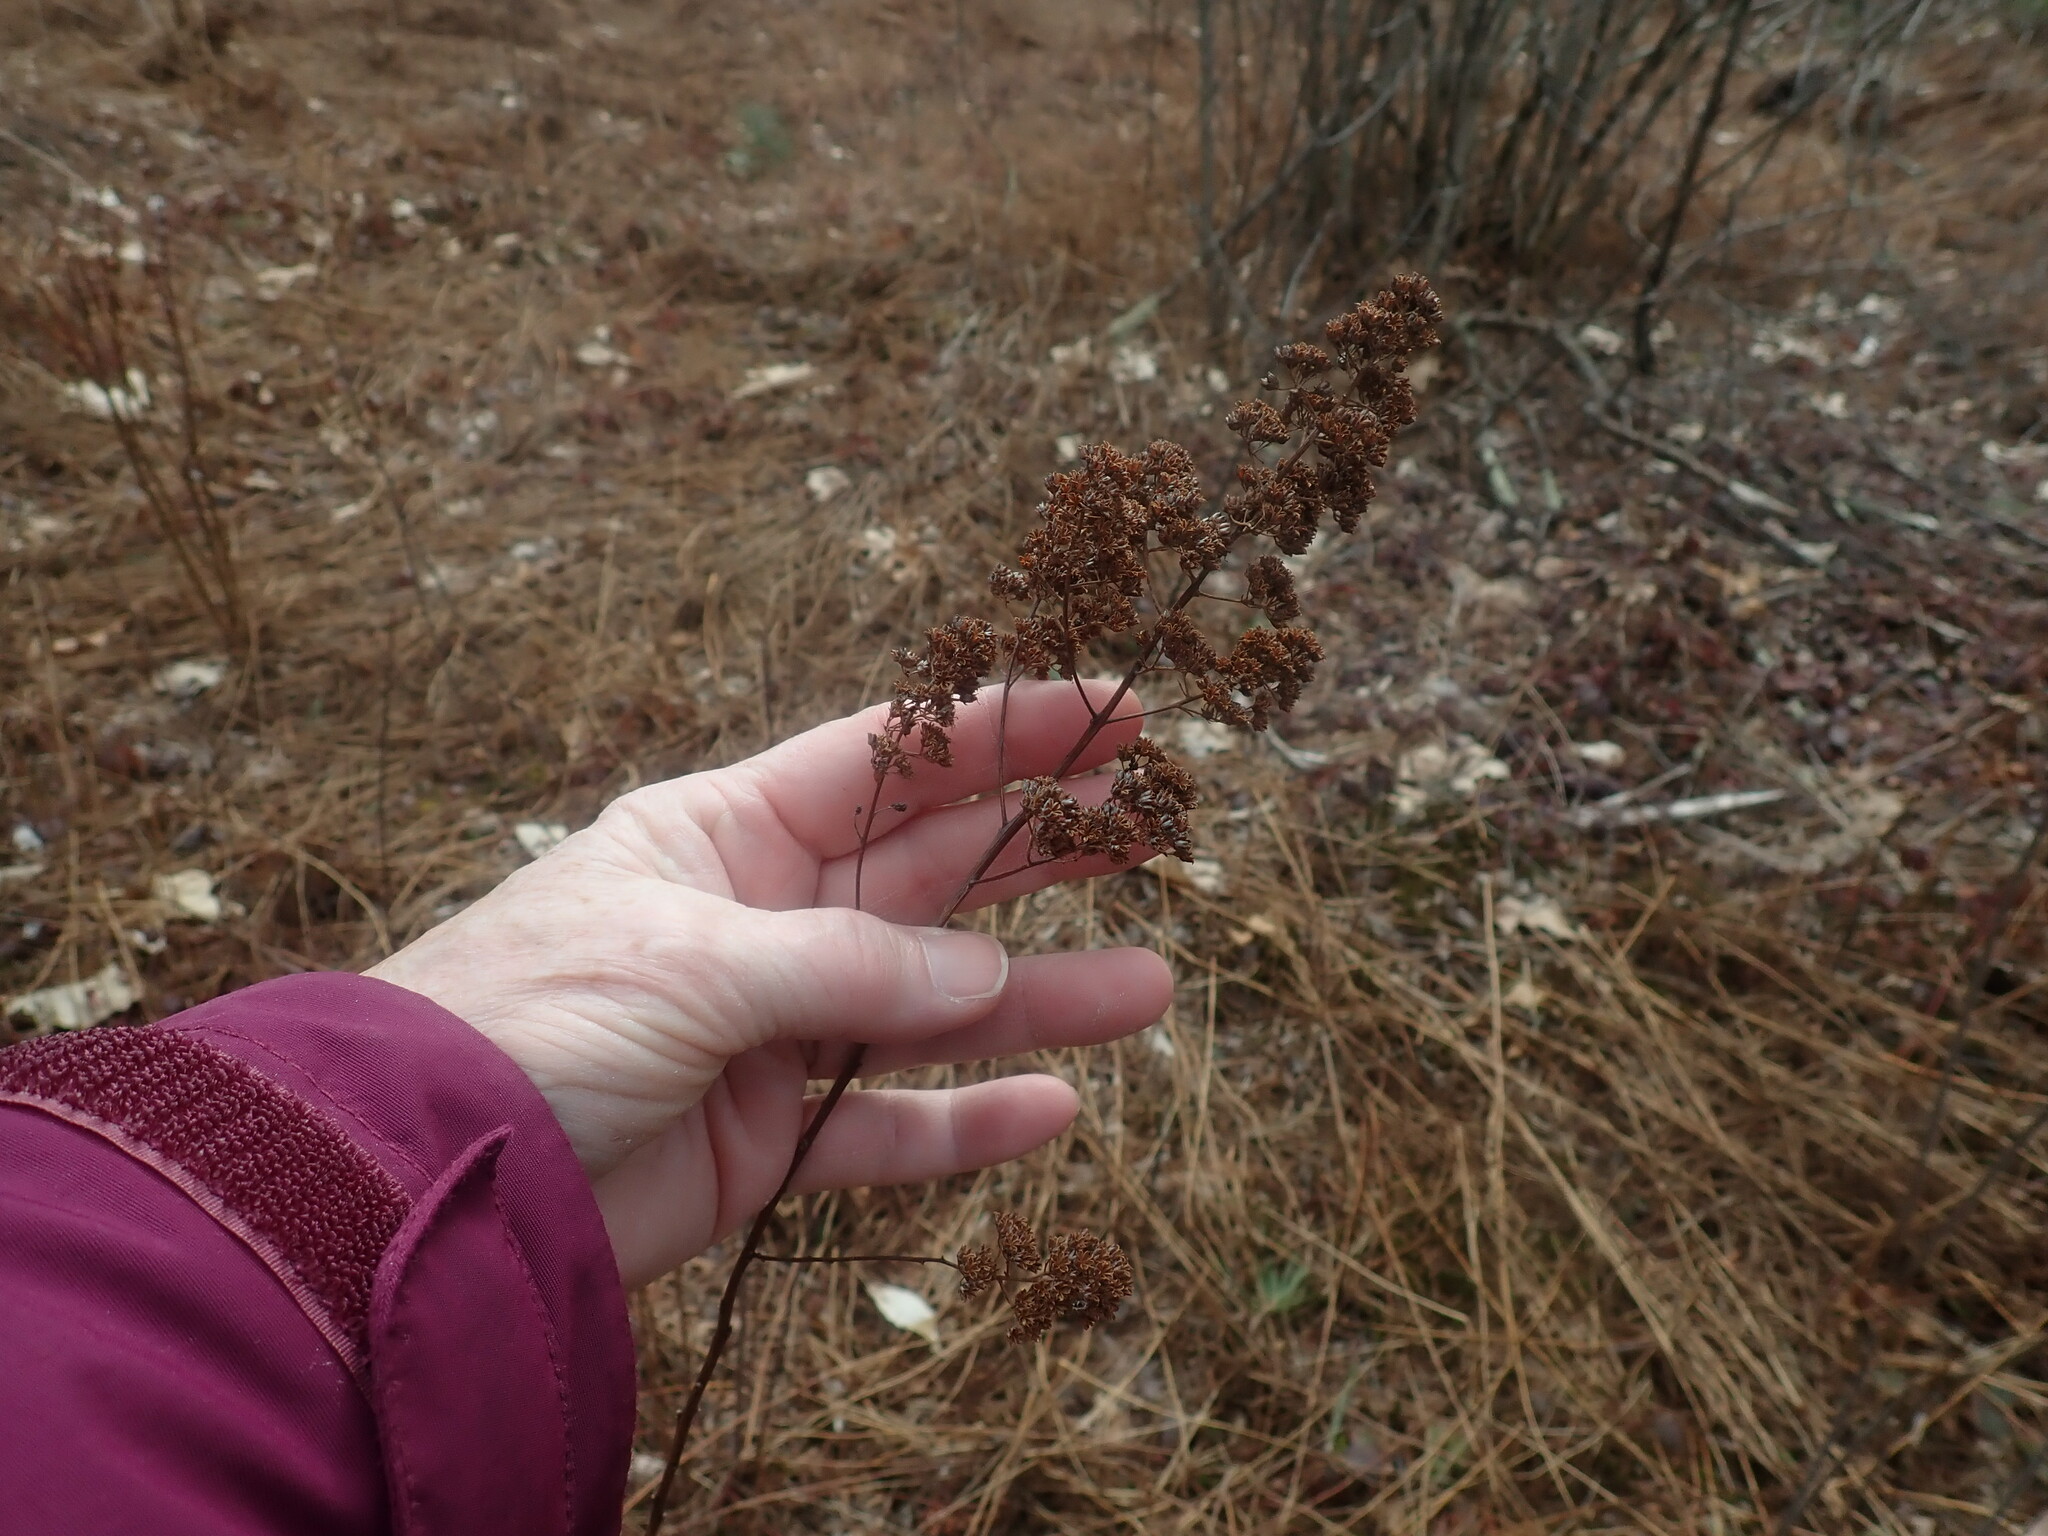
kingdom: Plantae
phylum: Tracheophyta
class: Magnoliopsida
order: Rosales
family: Rosaceae
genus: Spiraea
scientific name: Spiraea alba
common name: Pale bridewort
